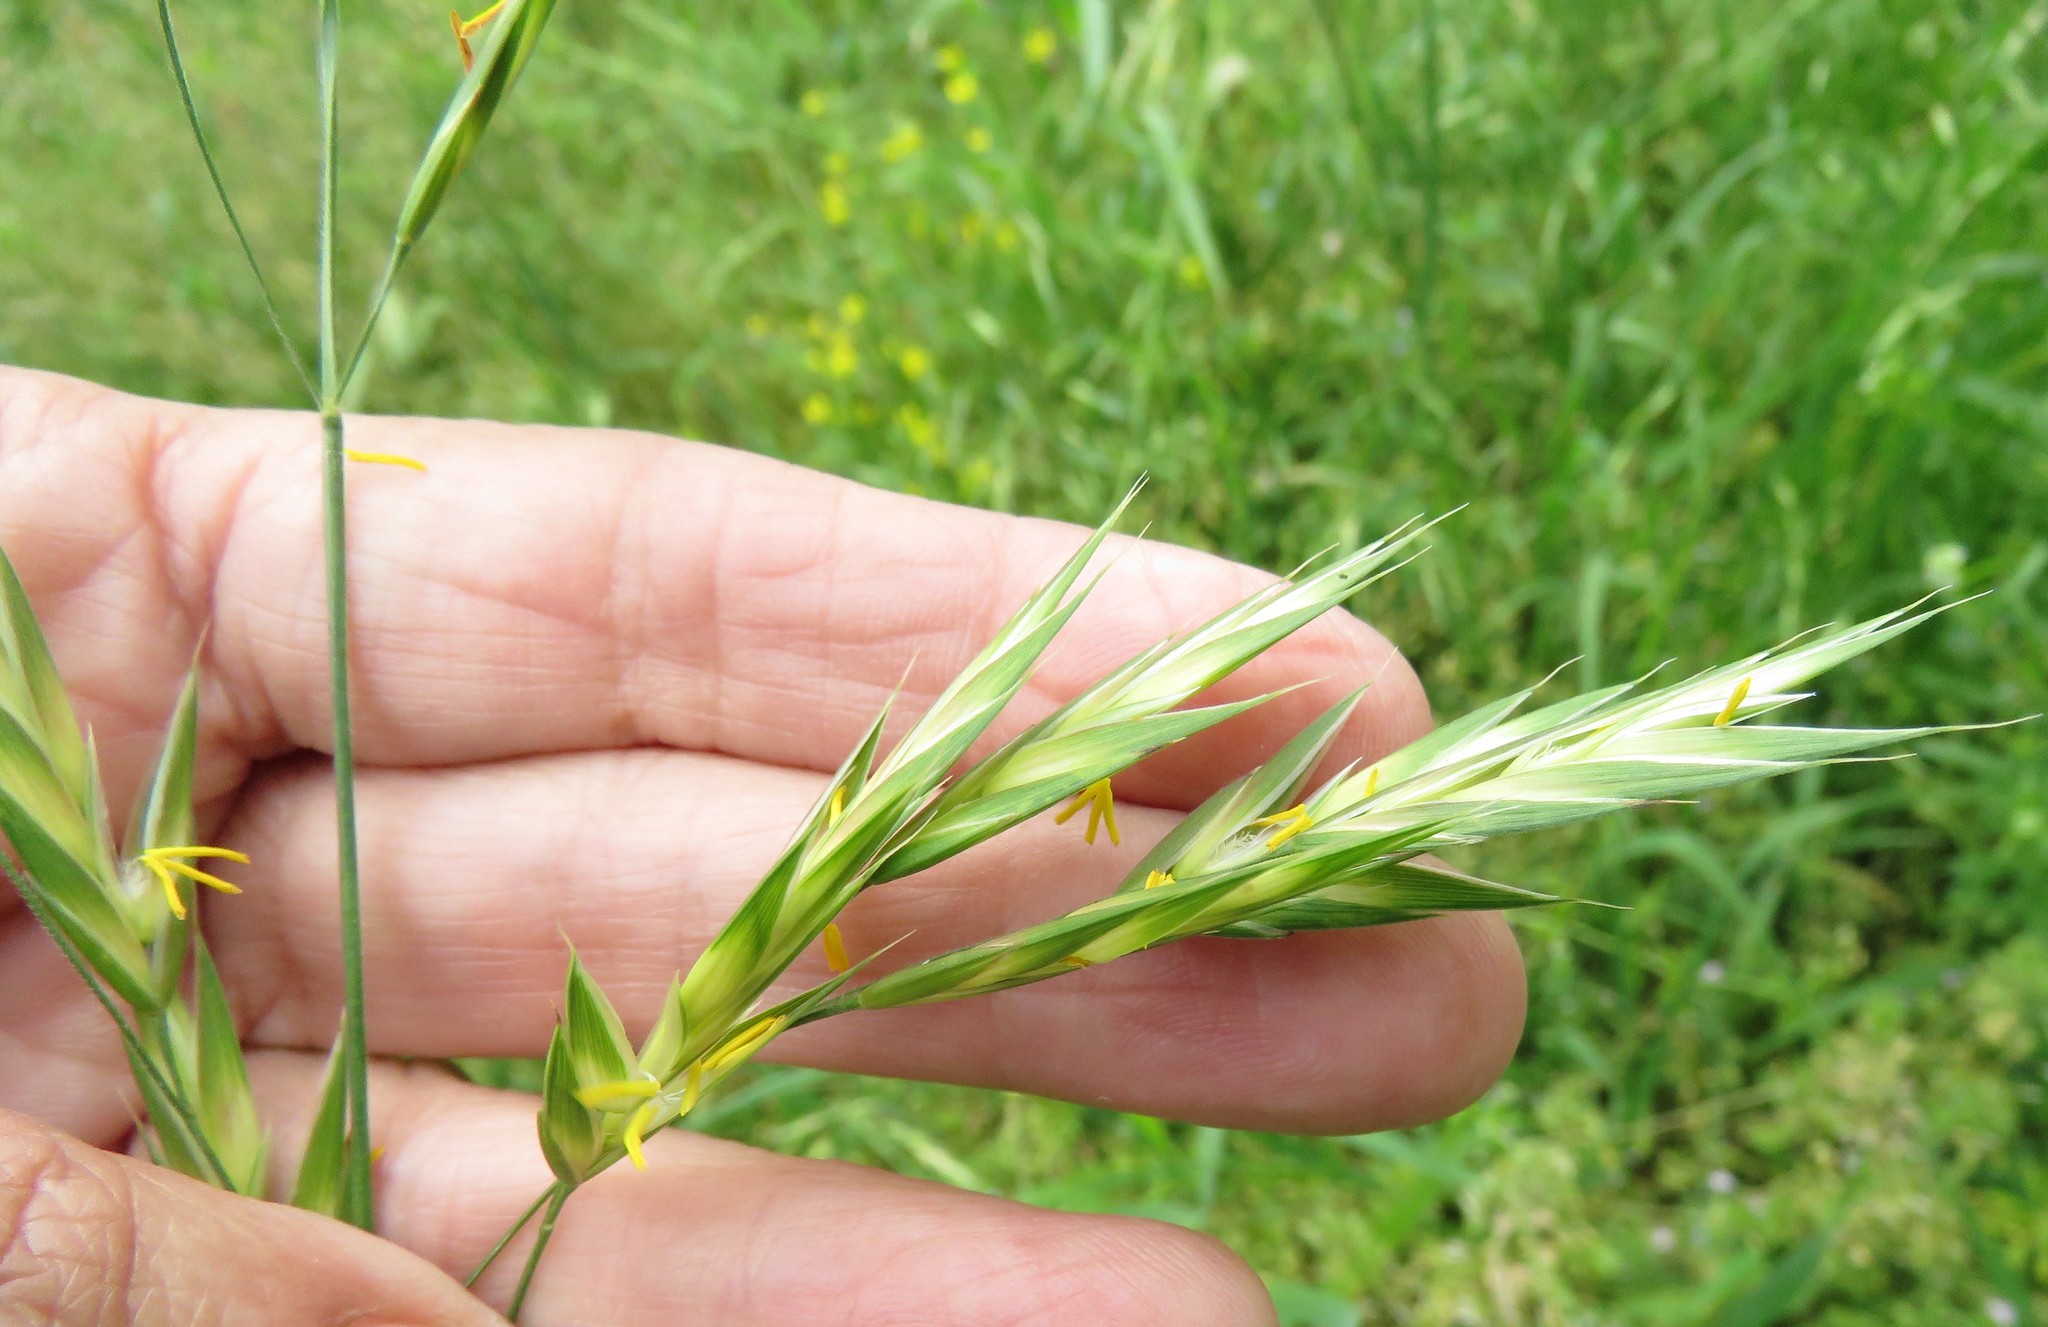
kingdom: Plantae
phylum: Tracheophyta
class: Liliopsida
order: Poales
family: Poaceae
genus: Bromus
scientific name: Bromus catharticus
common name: Rescuegrass
